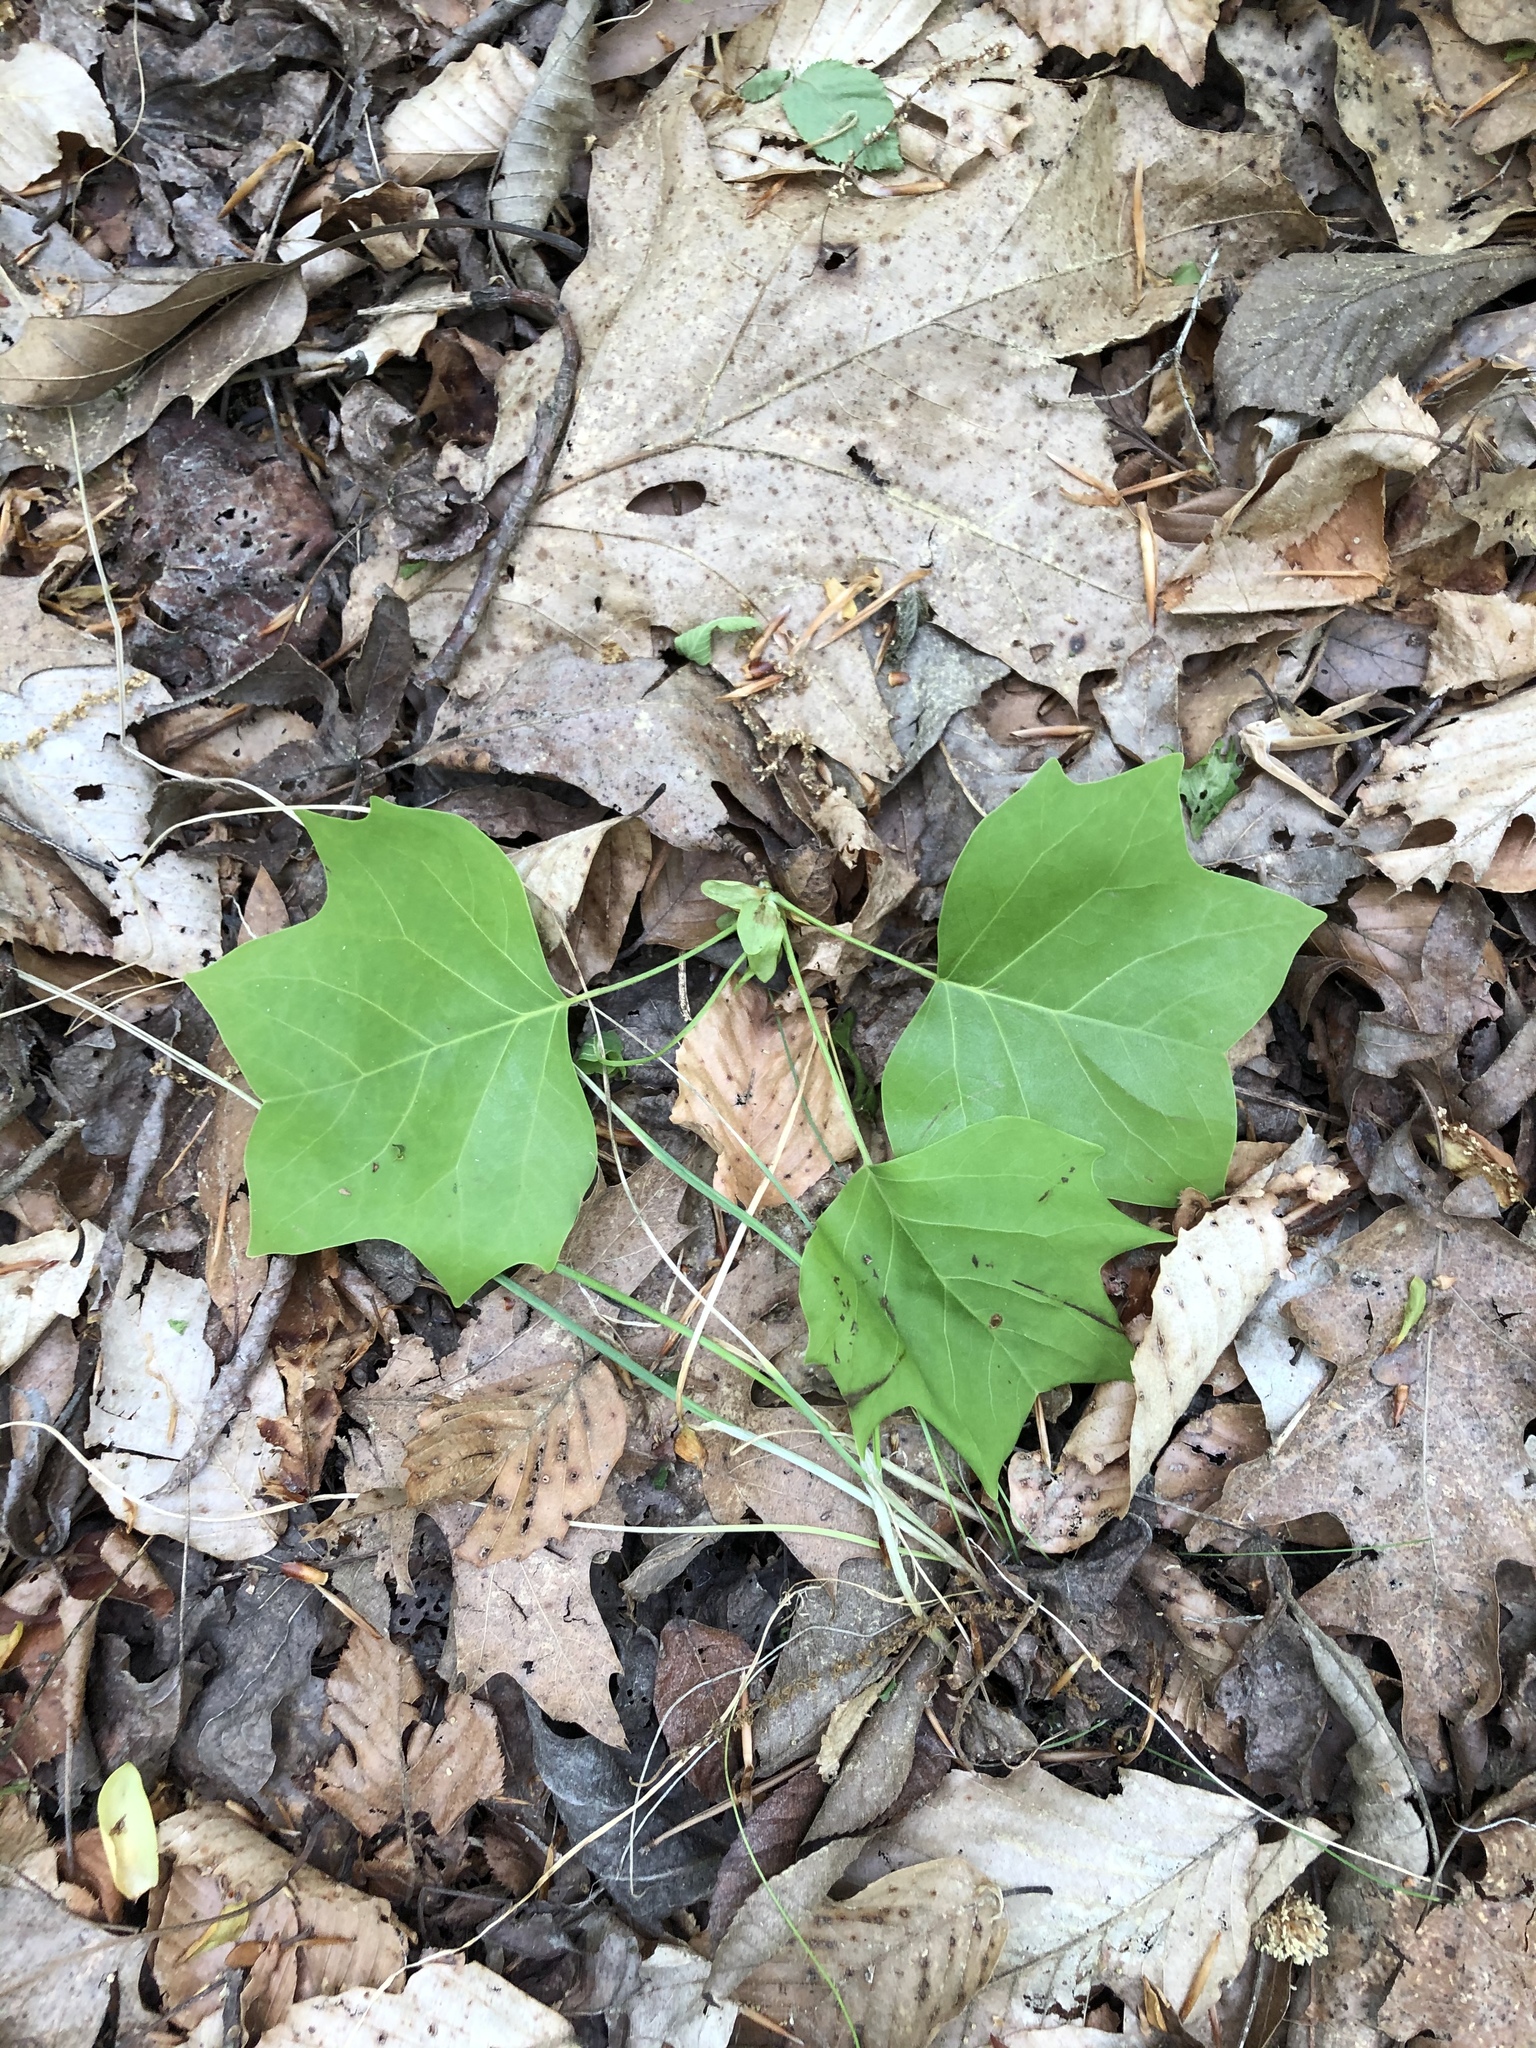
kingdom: Plantae
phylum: Tracheophyta
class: Magnoliopsida
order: Magnoliales
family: Magnoliaceae
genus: Liriodendron
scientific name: Liriodendron tulipifera
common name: Tulip tree
